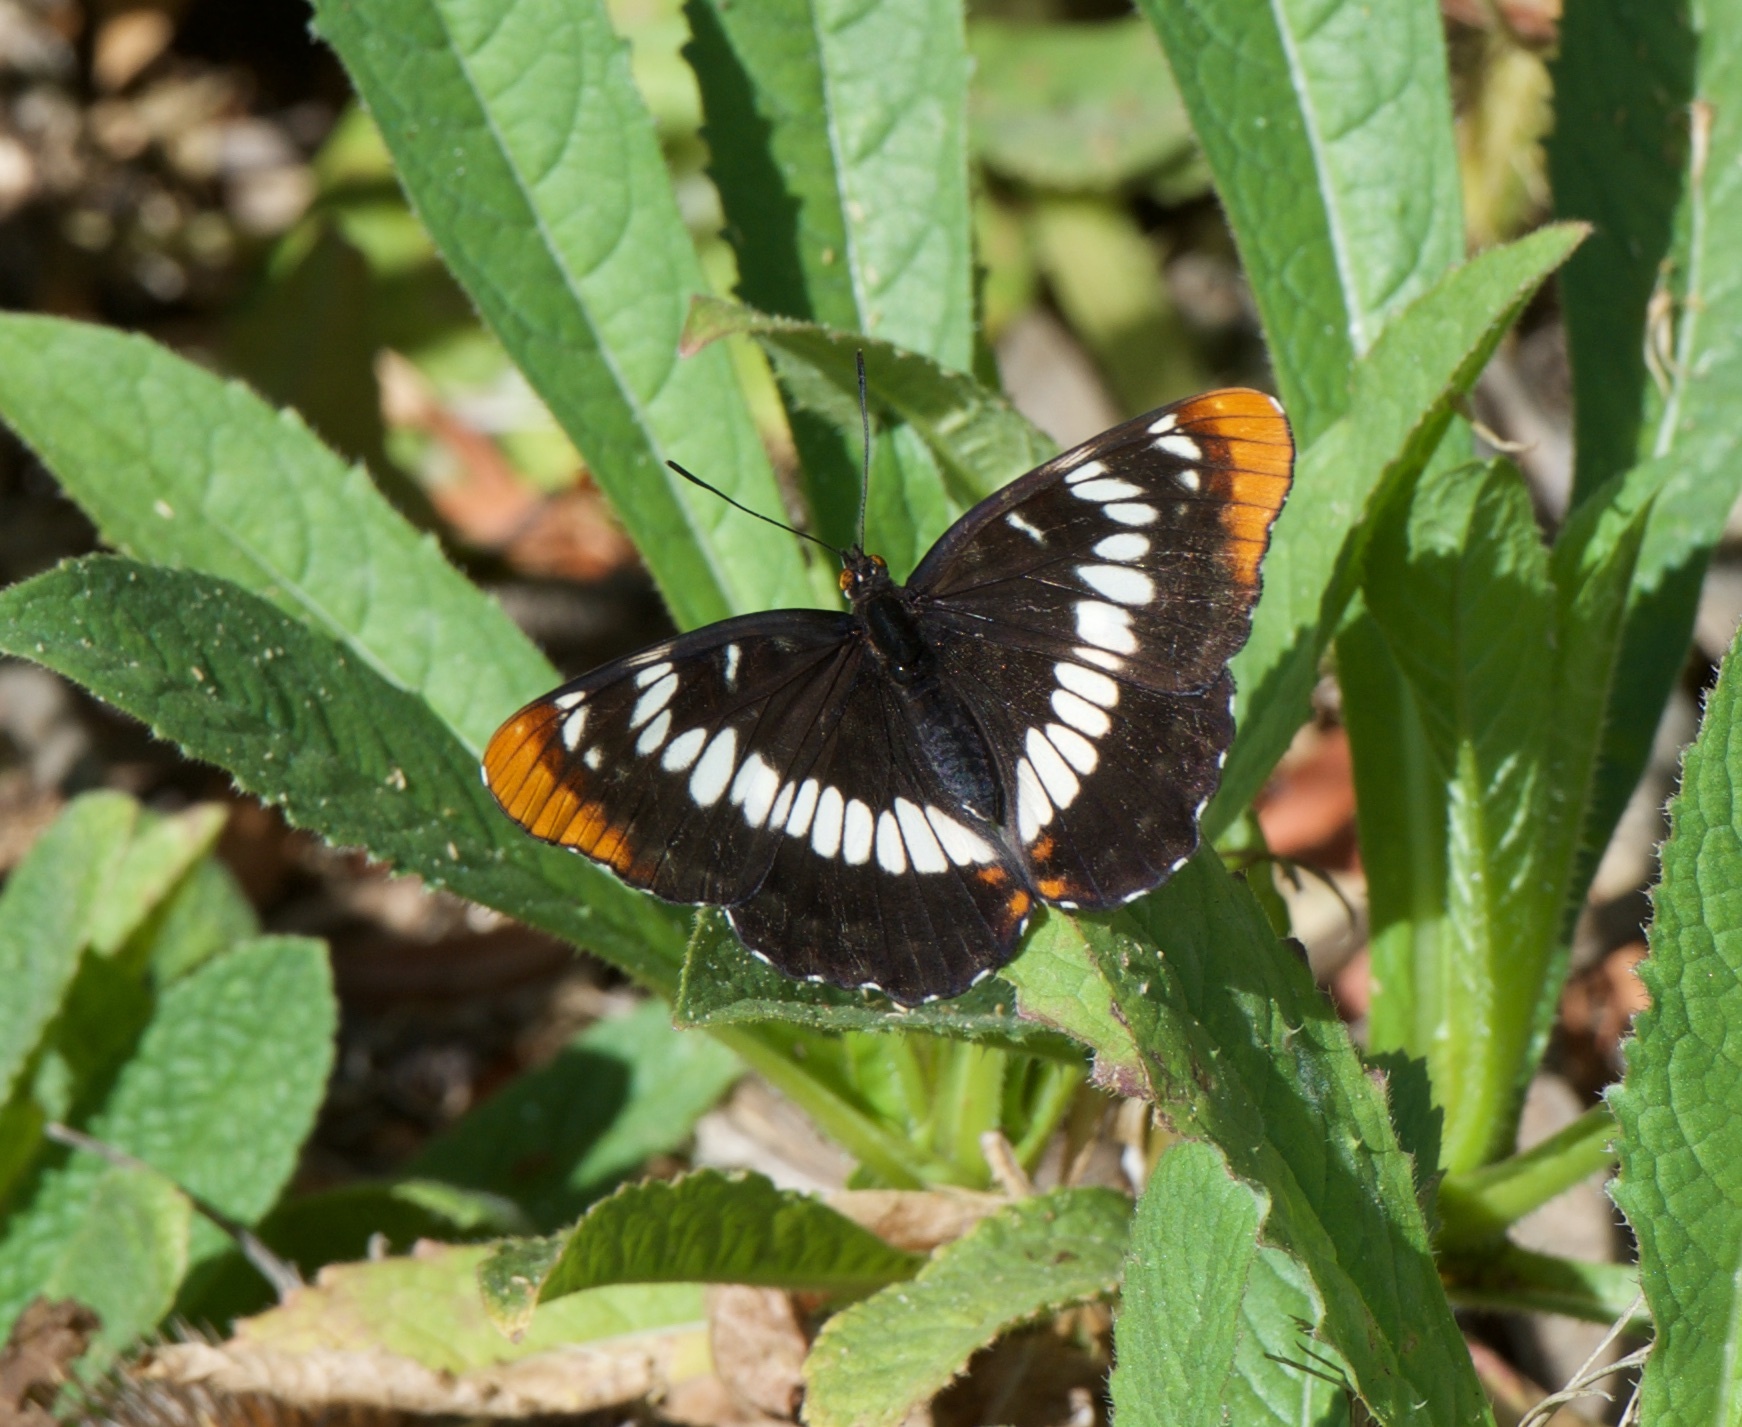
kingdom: Animalia
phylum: Arthropoda
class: Insecta
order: Lepidoptera
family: Nymphalidae
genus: Limenitis
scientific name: Limenitis lorquini
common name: Lorquin's admiral
